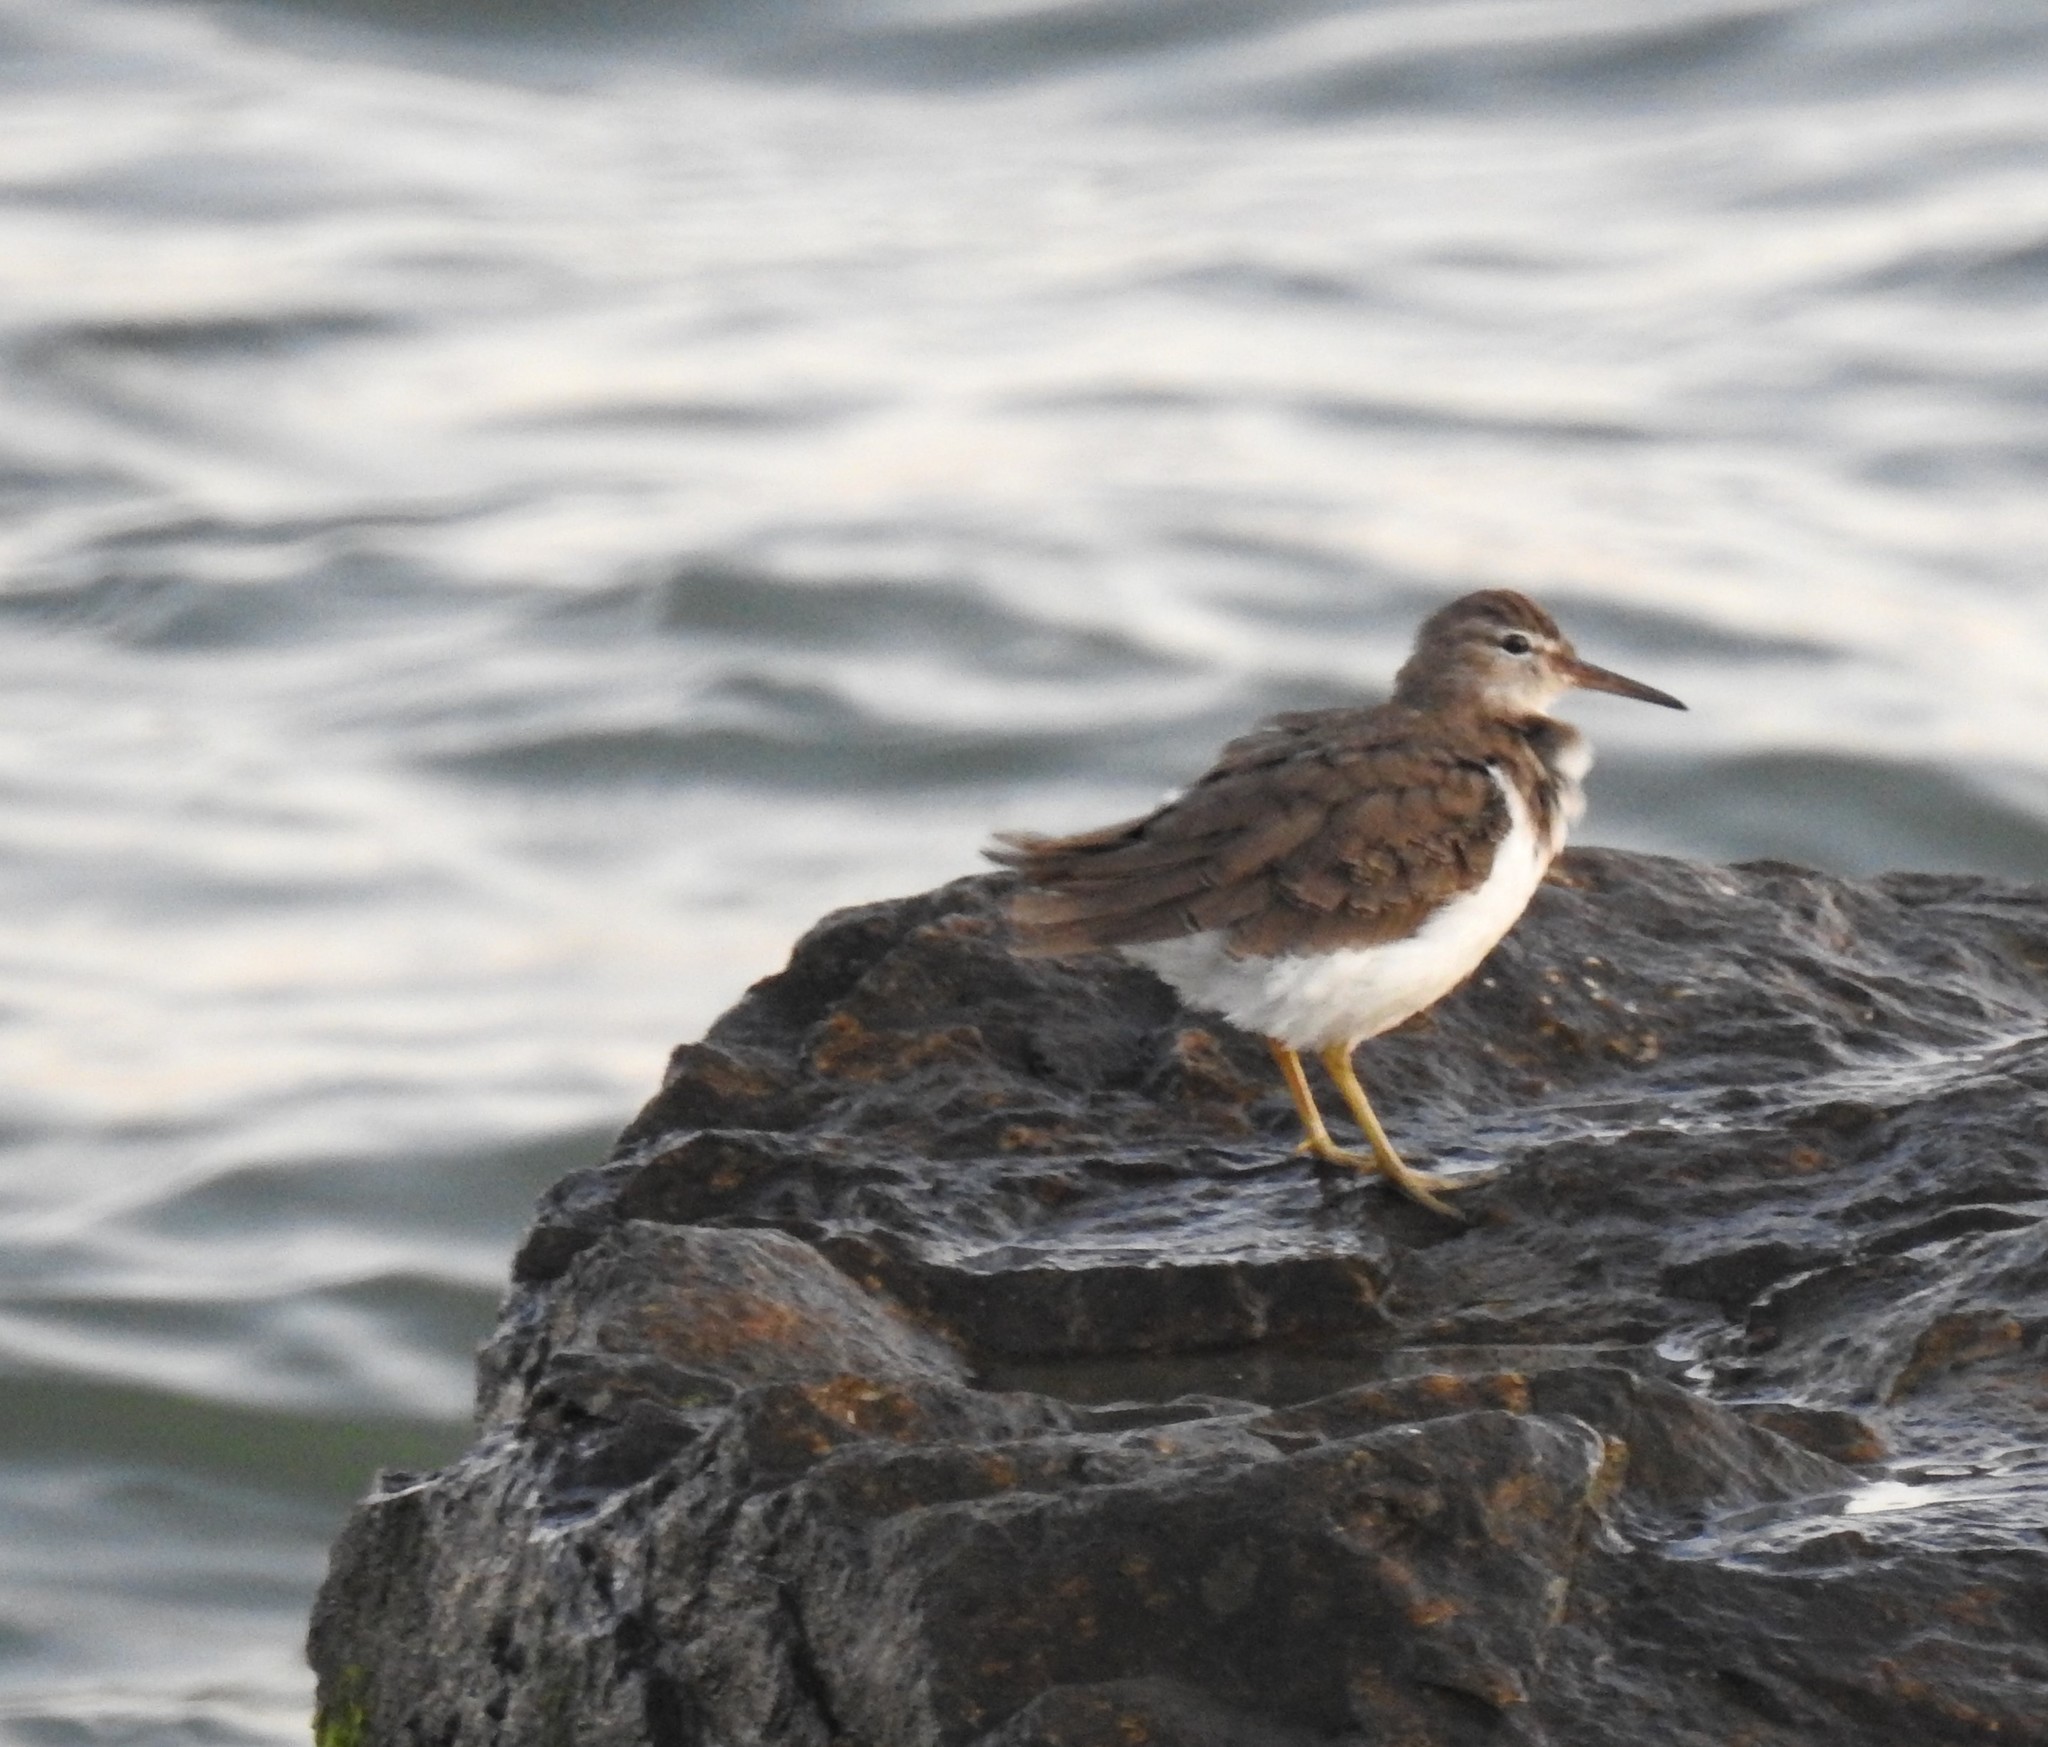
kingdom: Animalia
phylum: Chordata
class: Aves
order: Charadriiformes
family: Scolopacidae
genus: Actitis
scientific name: Actitis macularius
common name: Spotted sandpiper
